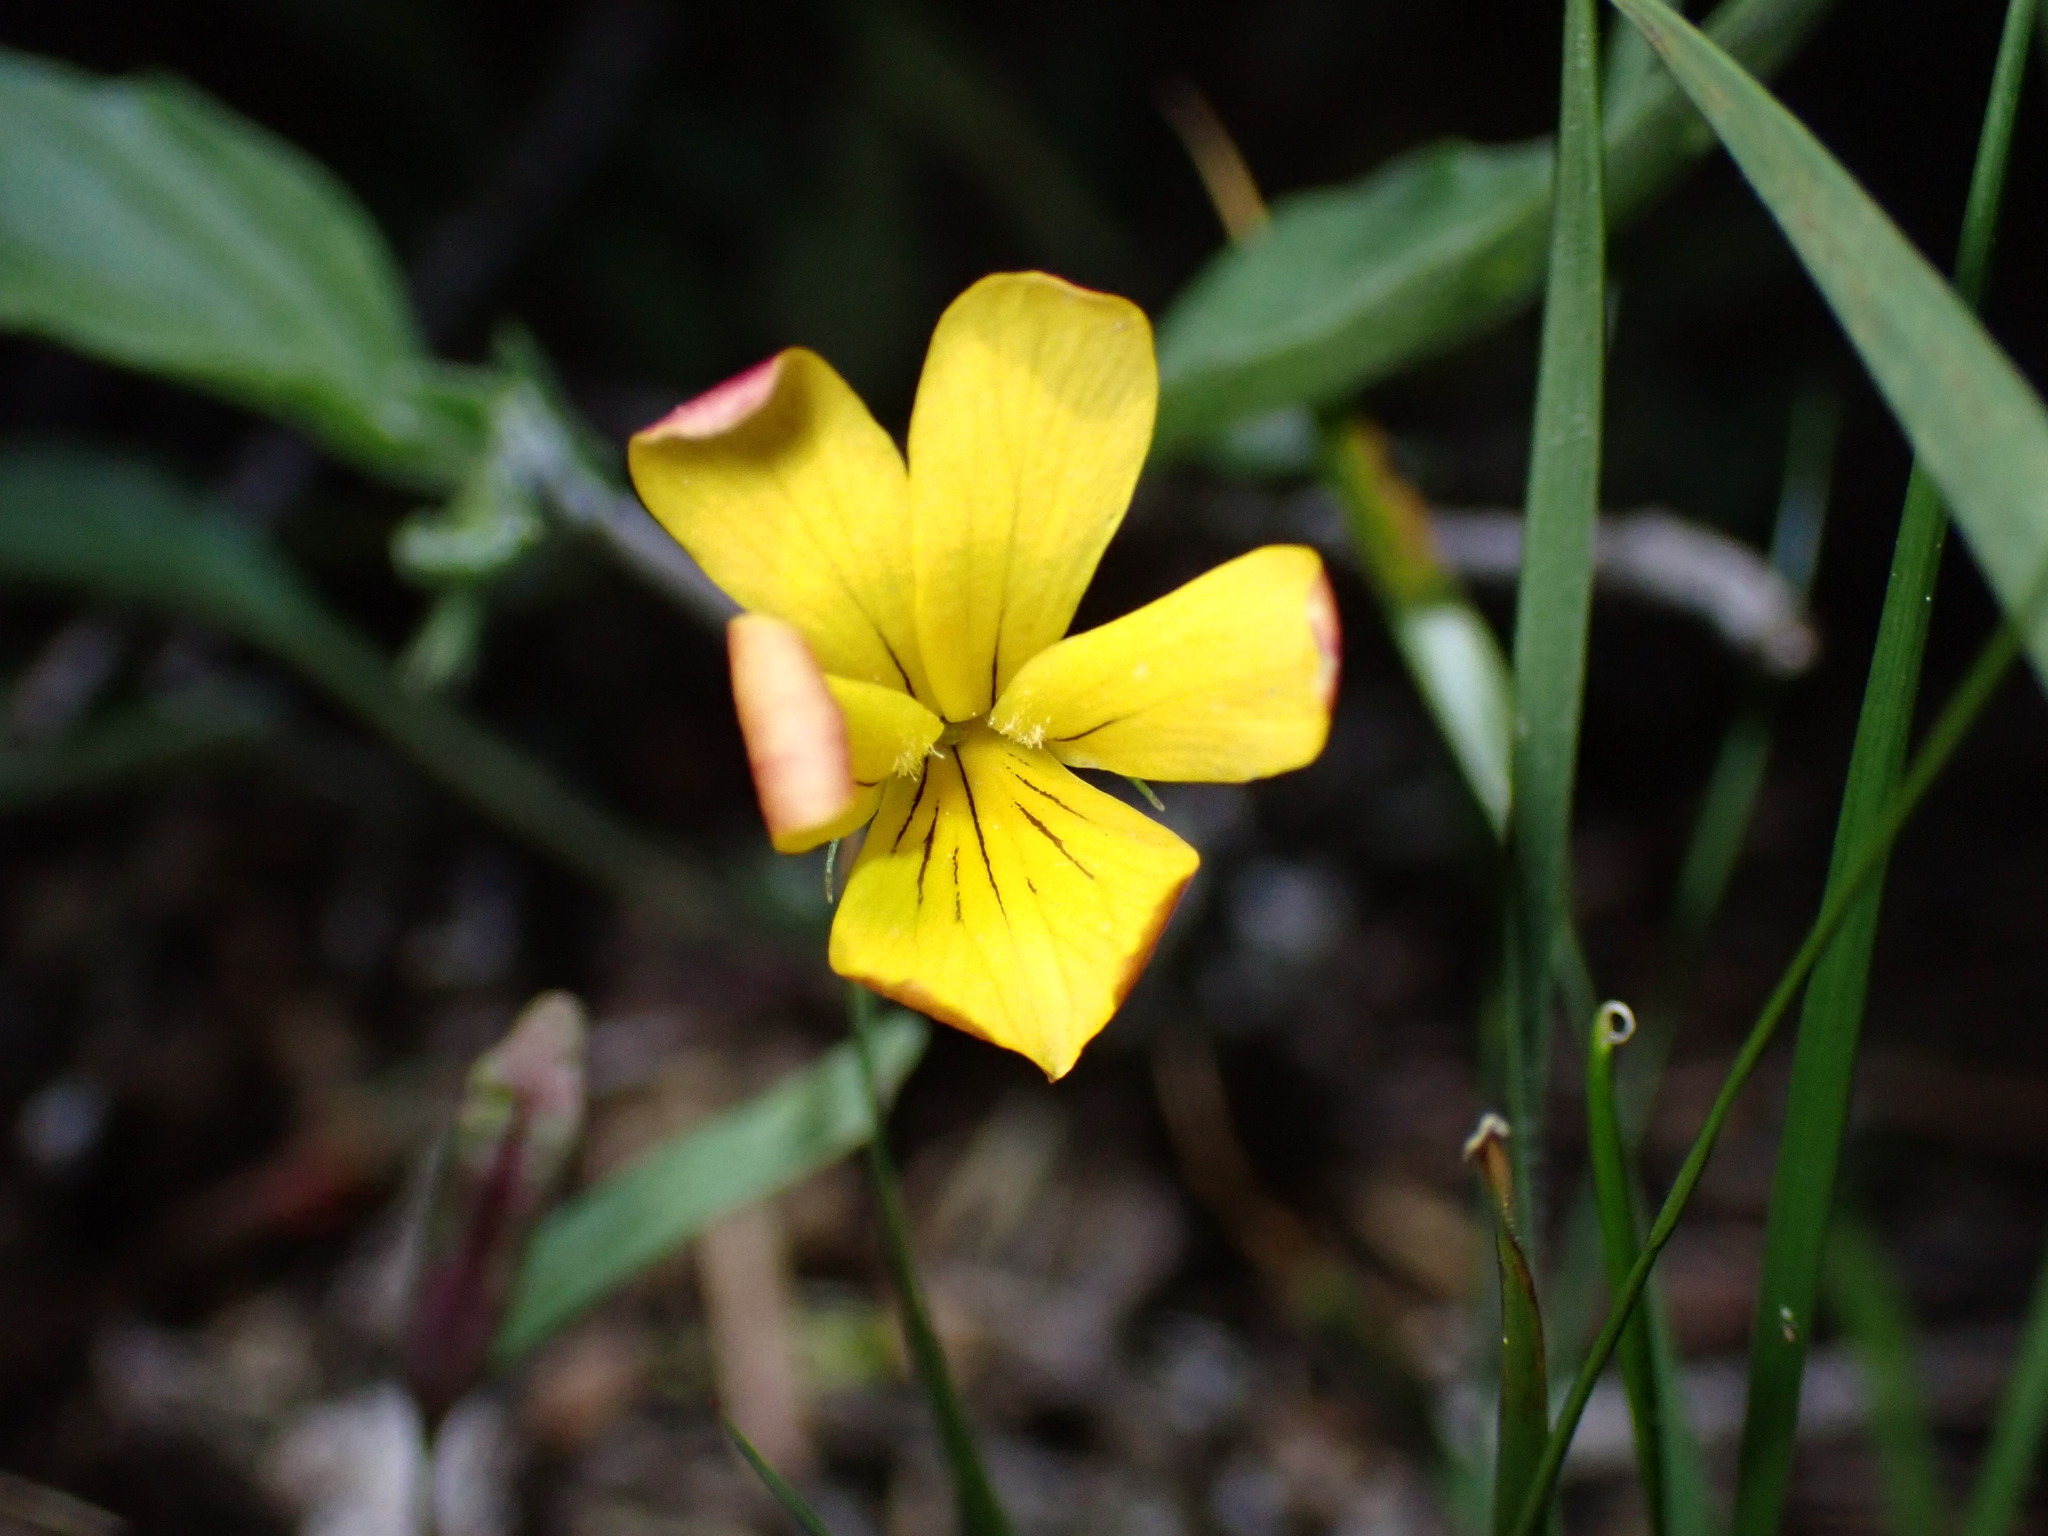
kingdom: Plantae
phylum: Tracheophyta
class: Magnoliopsida
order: Malpighiales
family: Violaceae
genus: Viola
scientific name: Viola pinetorum
